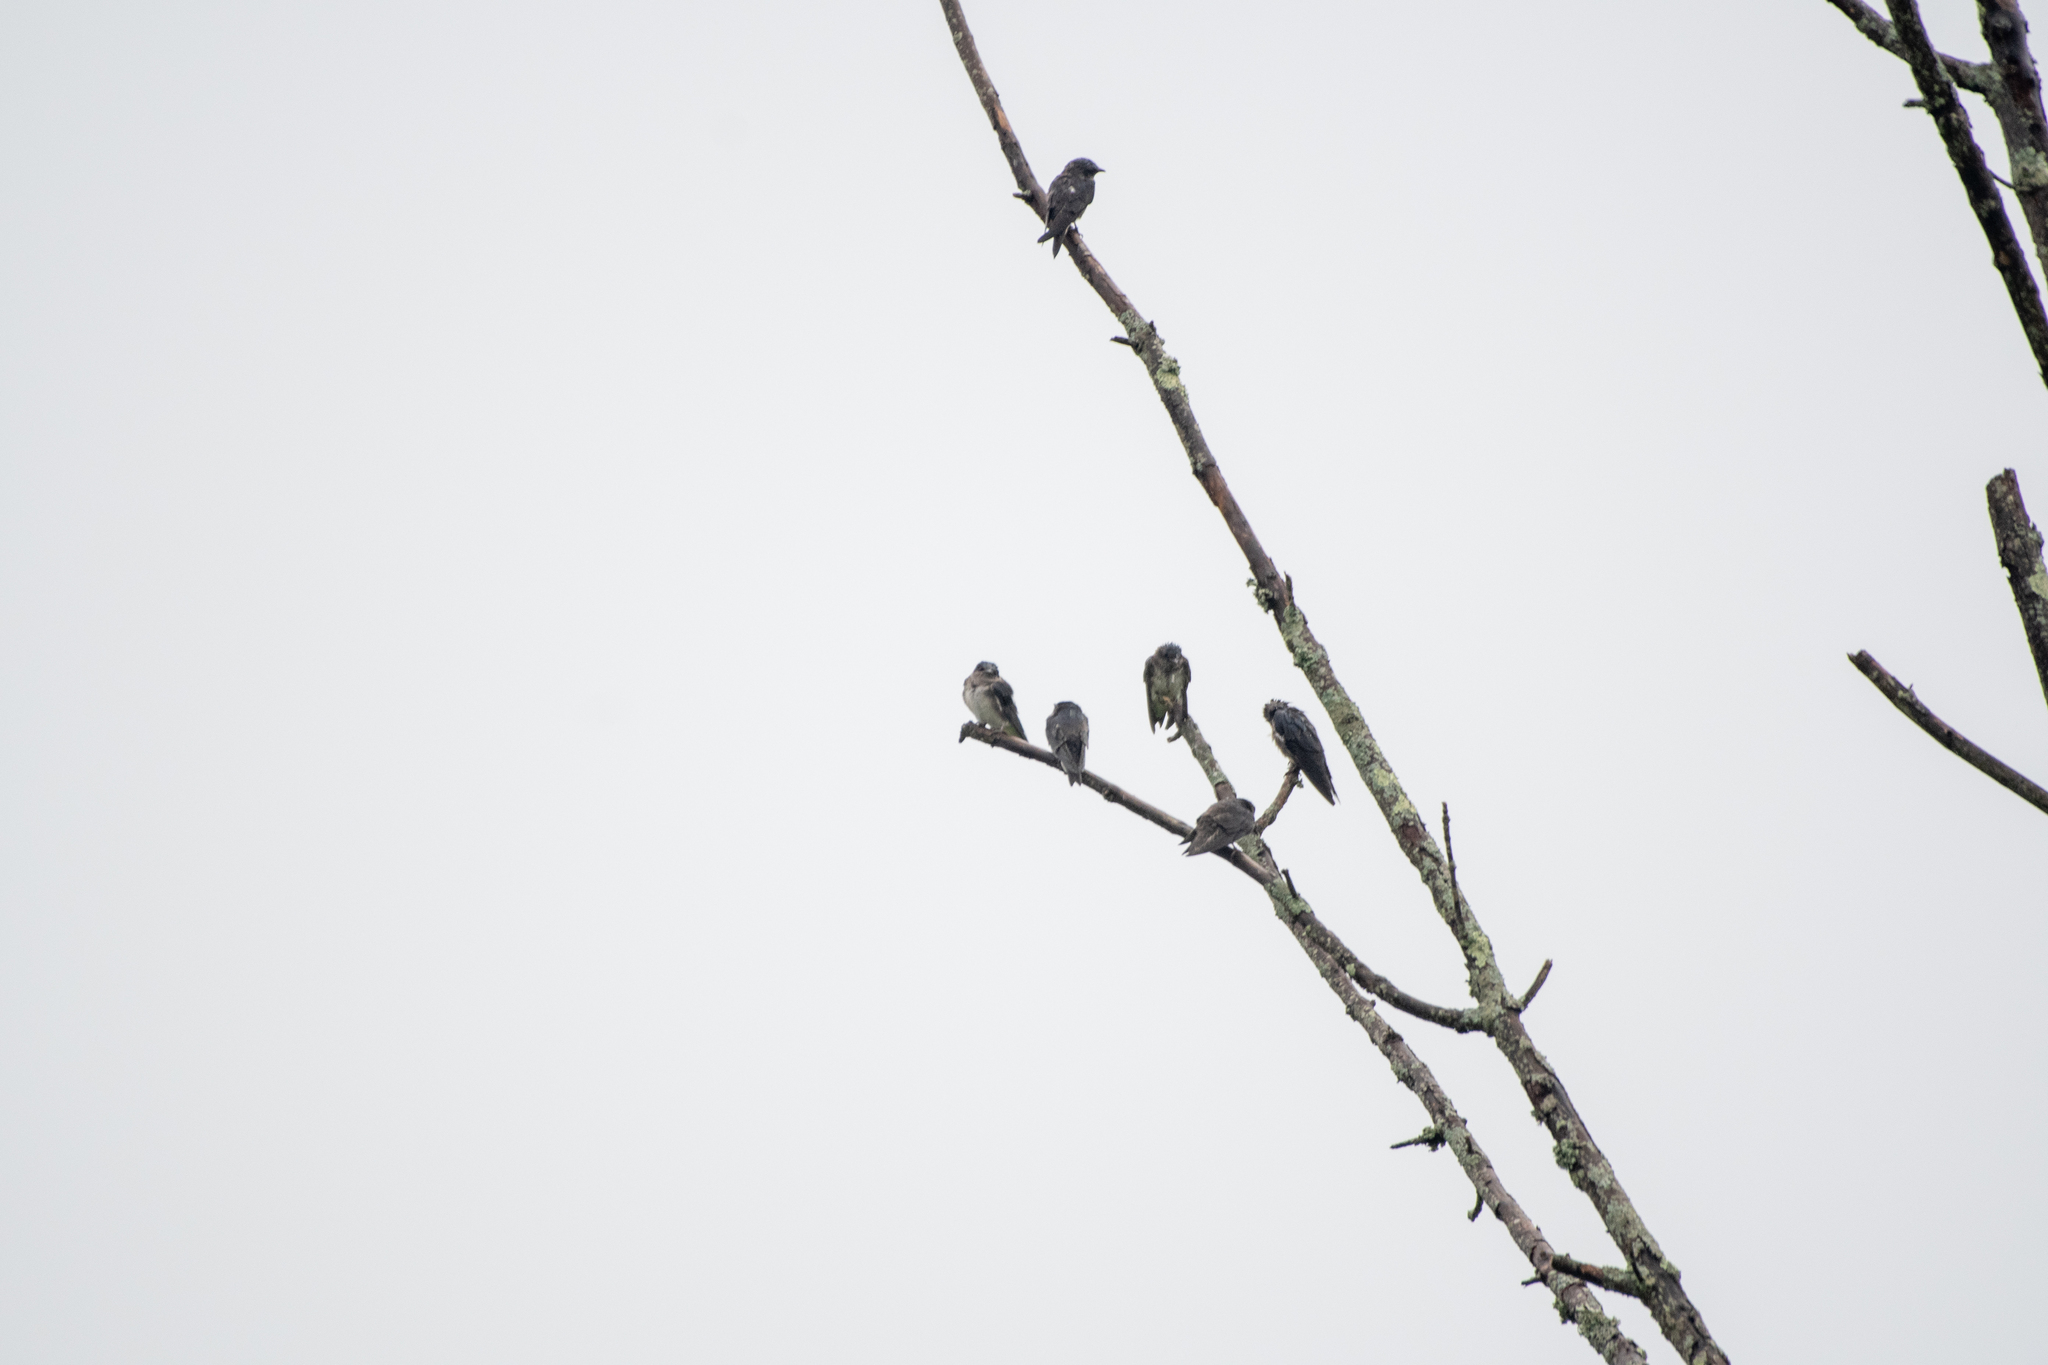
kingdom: Animalia
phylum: Chordata
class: Aves
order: Passeriformes
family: Hirundinidae
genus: Progne
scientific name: Progne subis
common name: Purple martin
